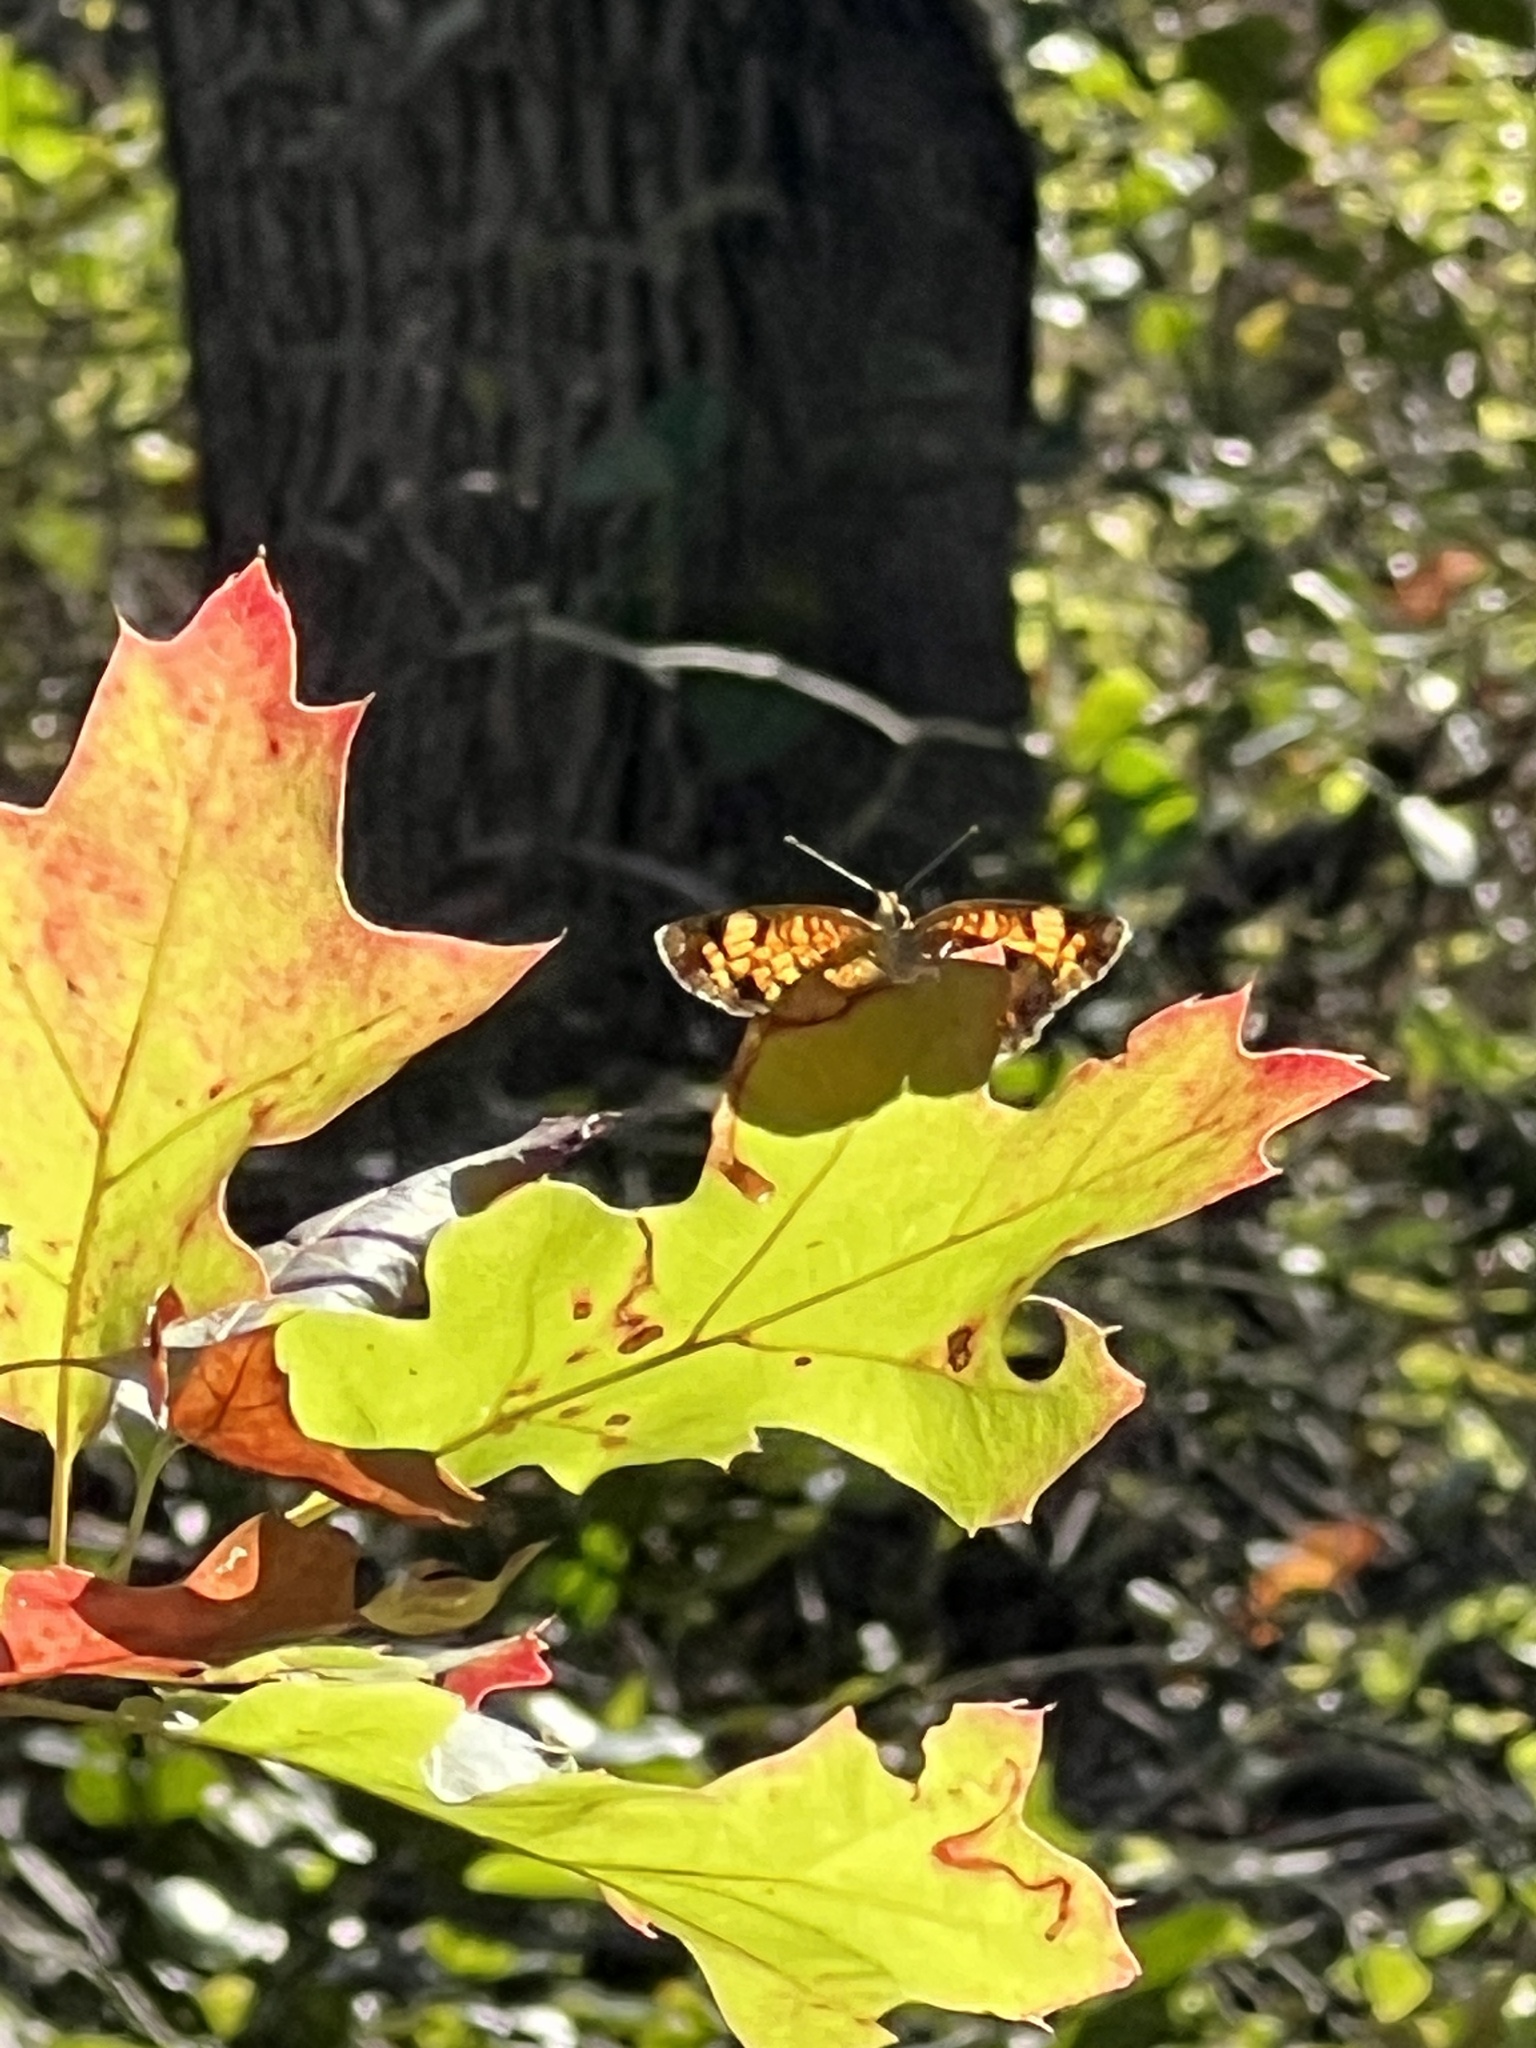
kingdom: Animalia
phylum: Arthropoda
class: Insecta
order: Lepidoptera
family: Nymphalidae
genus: Phyciodes
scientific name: Phyciodes tharos
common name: Pearl crescent
